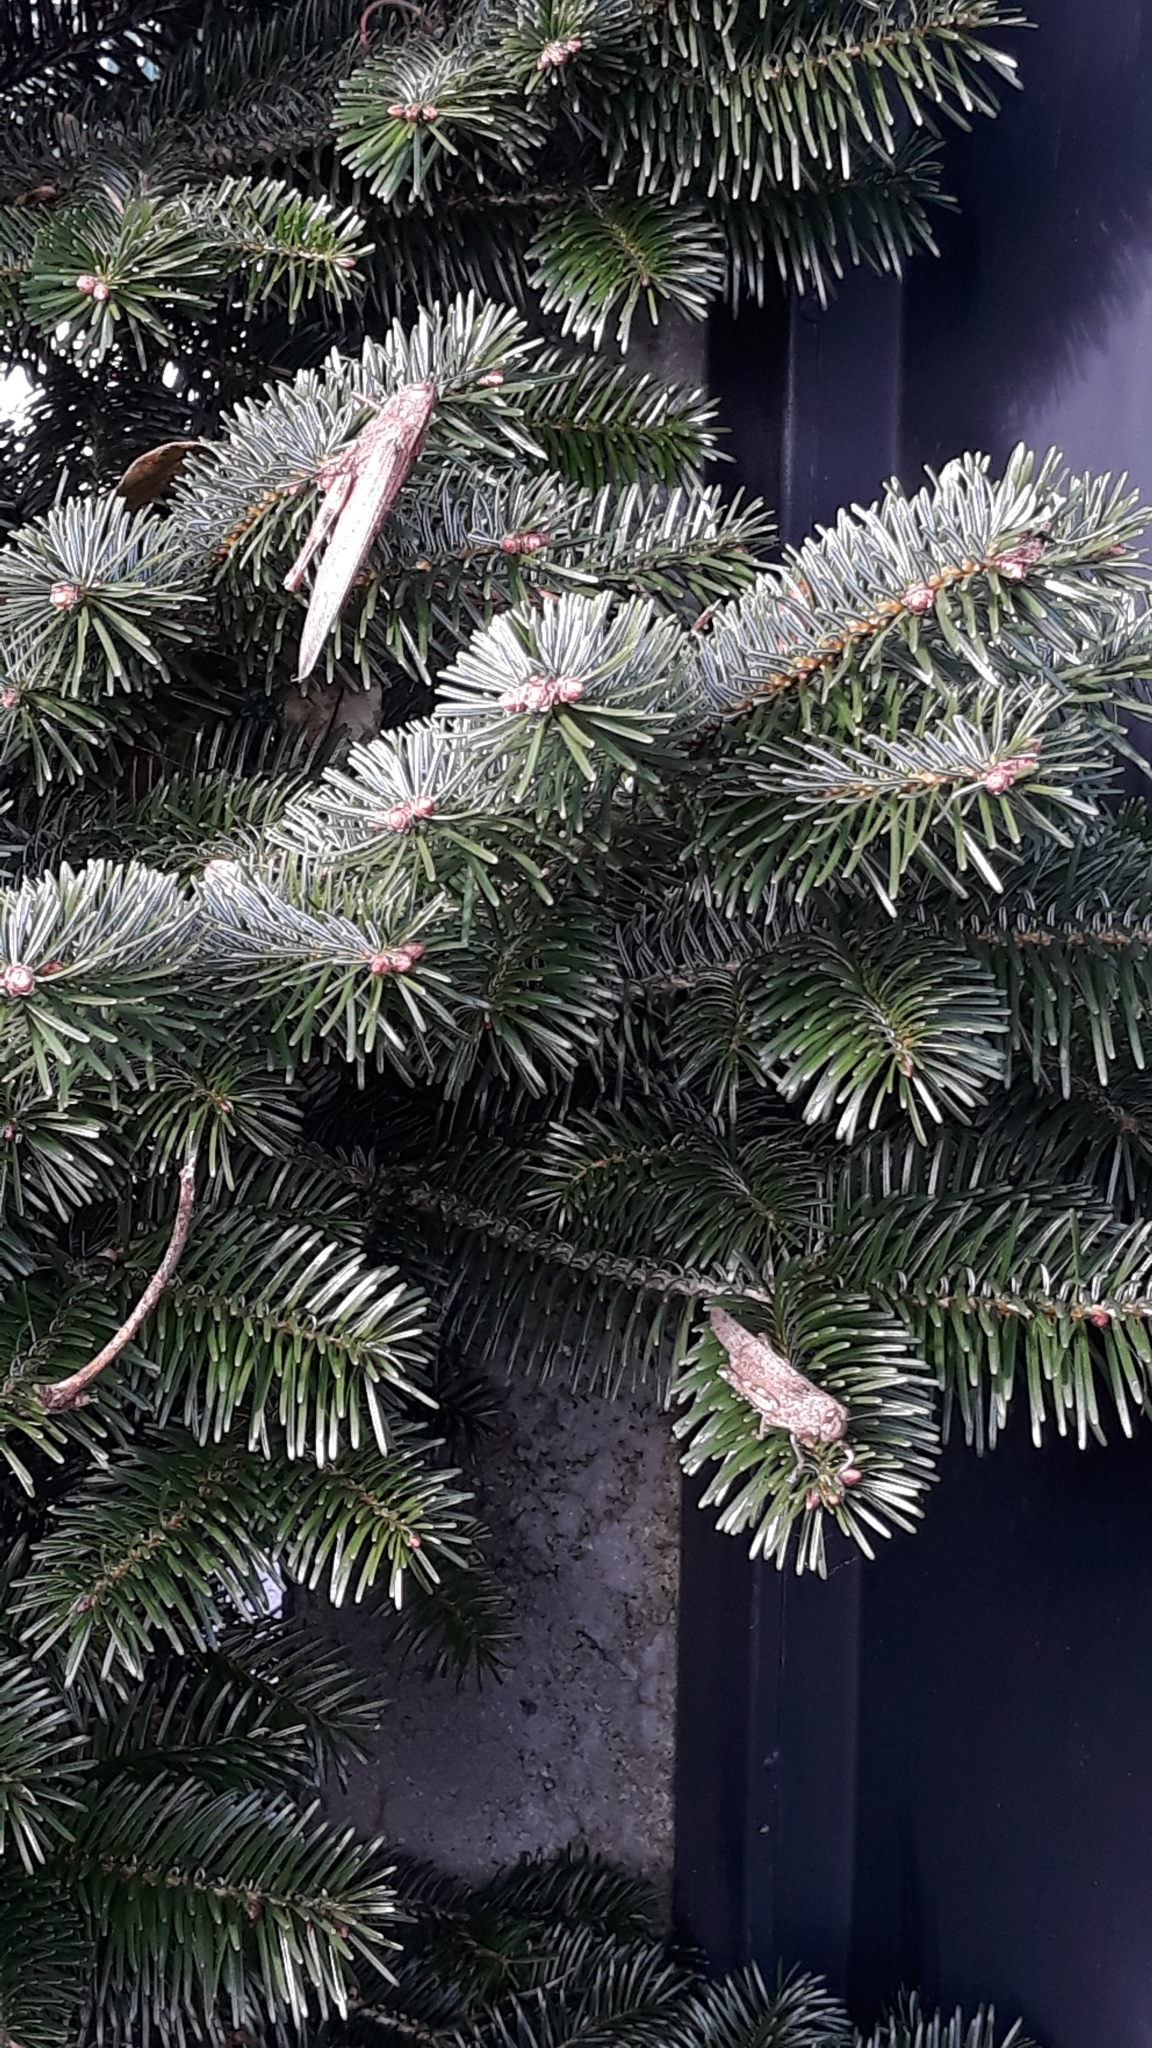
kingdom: Animalia
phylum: Arthropoda
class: Insecta
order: Orthoptera
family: Acrididae
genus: Anacridium
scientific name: Anacridium aegyptium
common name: Egyptian grasshopper
